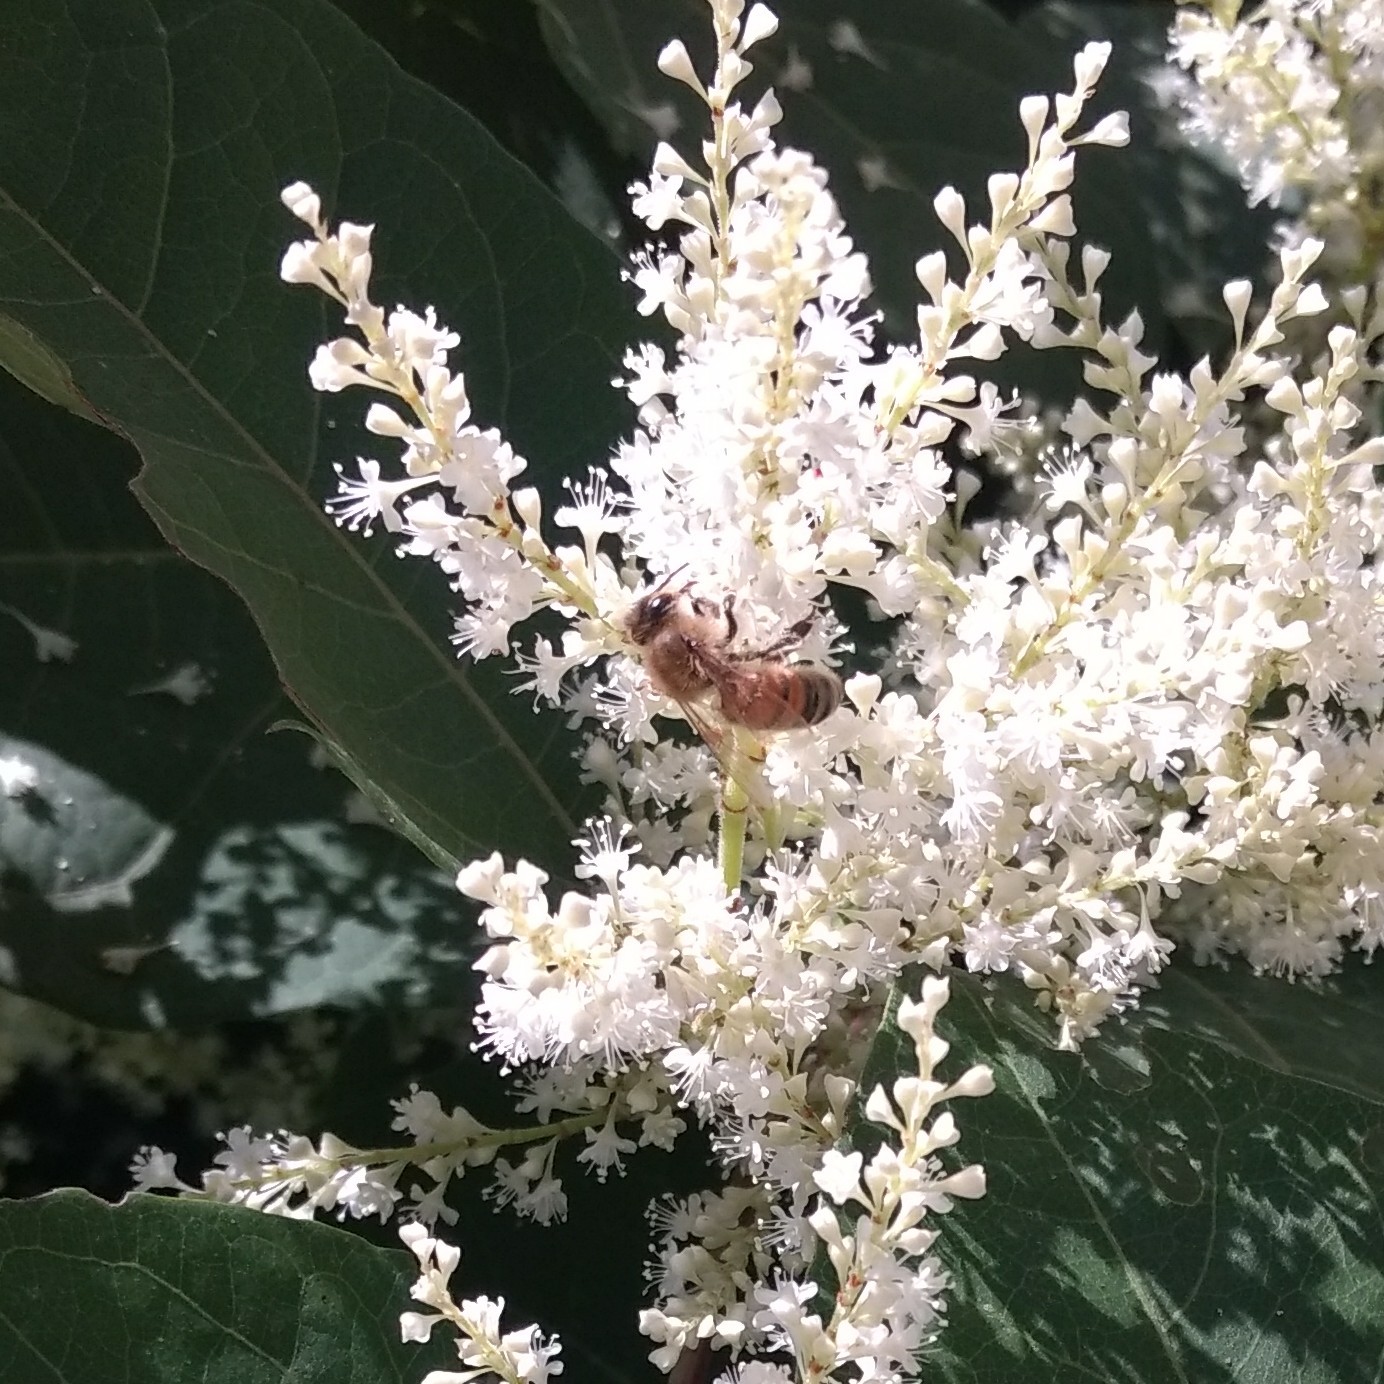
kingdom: Animalia
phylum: Arthropoda
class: Insecta
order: Hymenoptera
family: Apidae
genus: Apis
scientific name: Apis mellifera
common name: Honey bee
